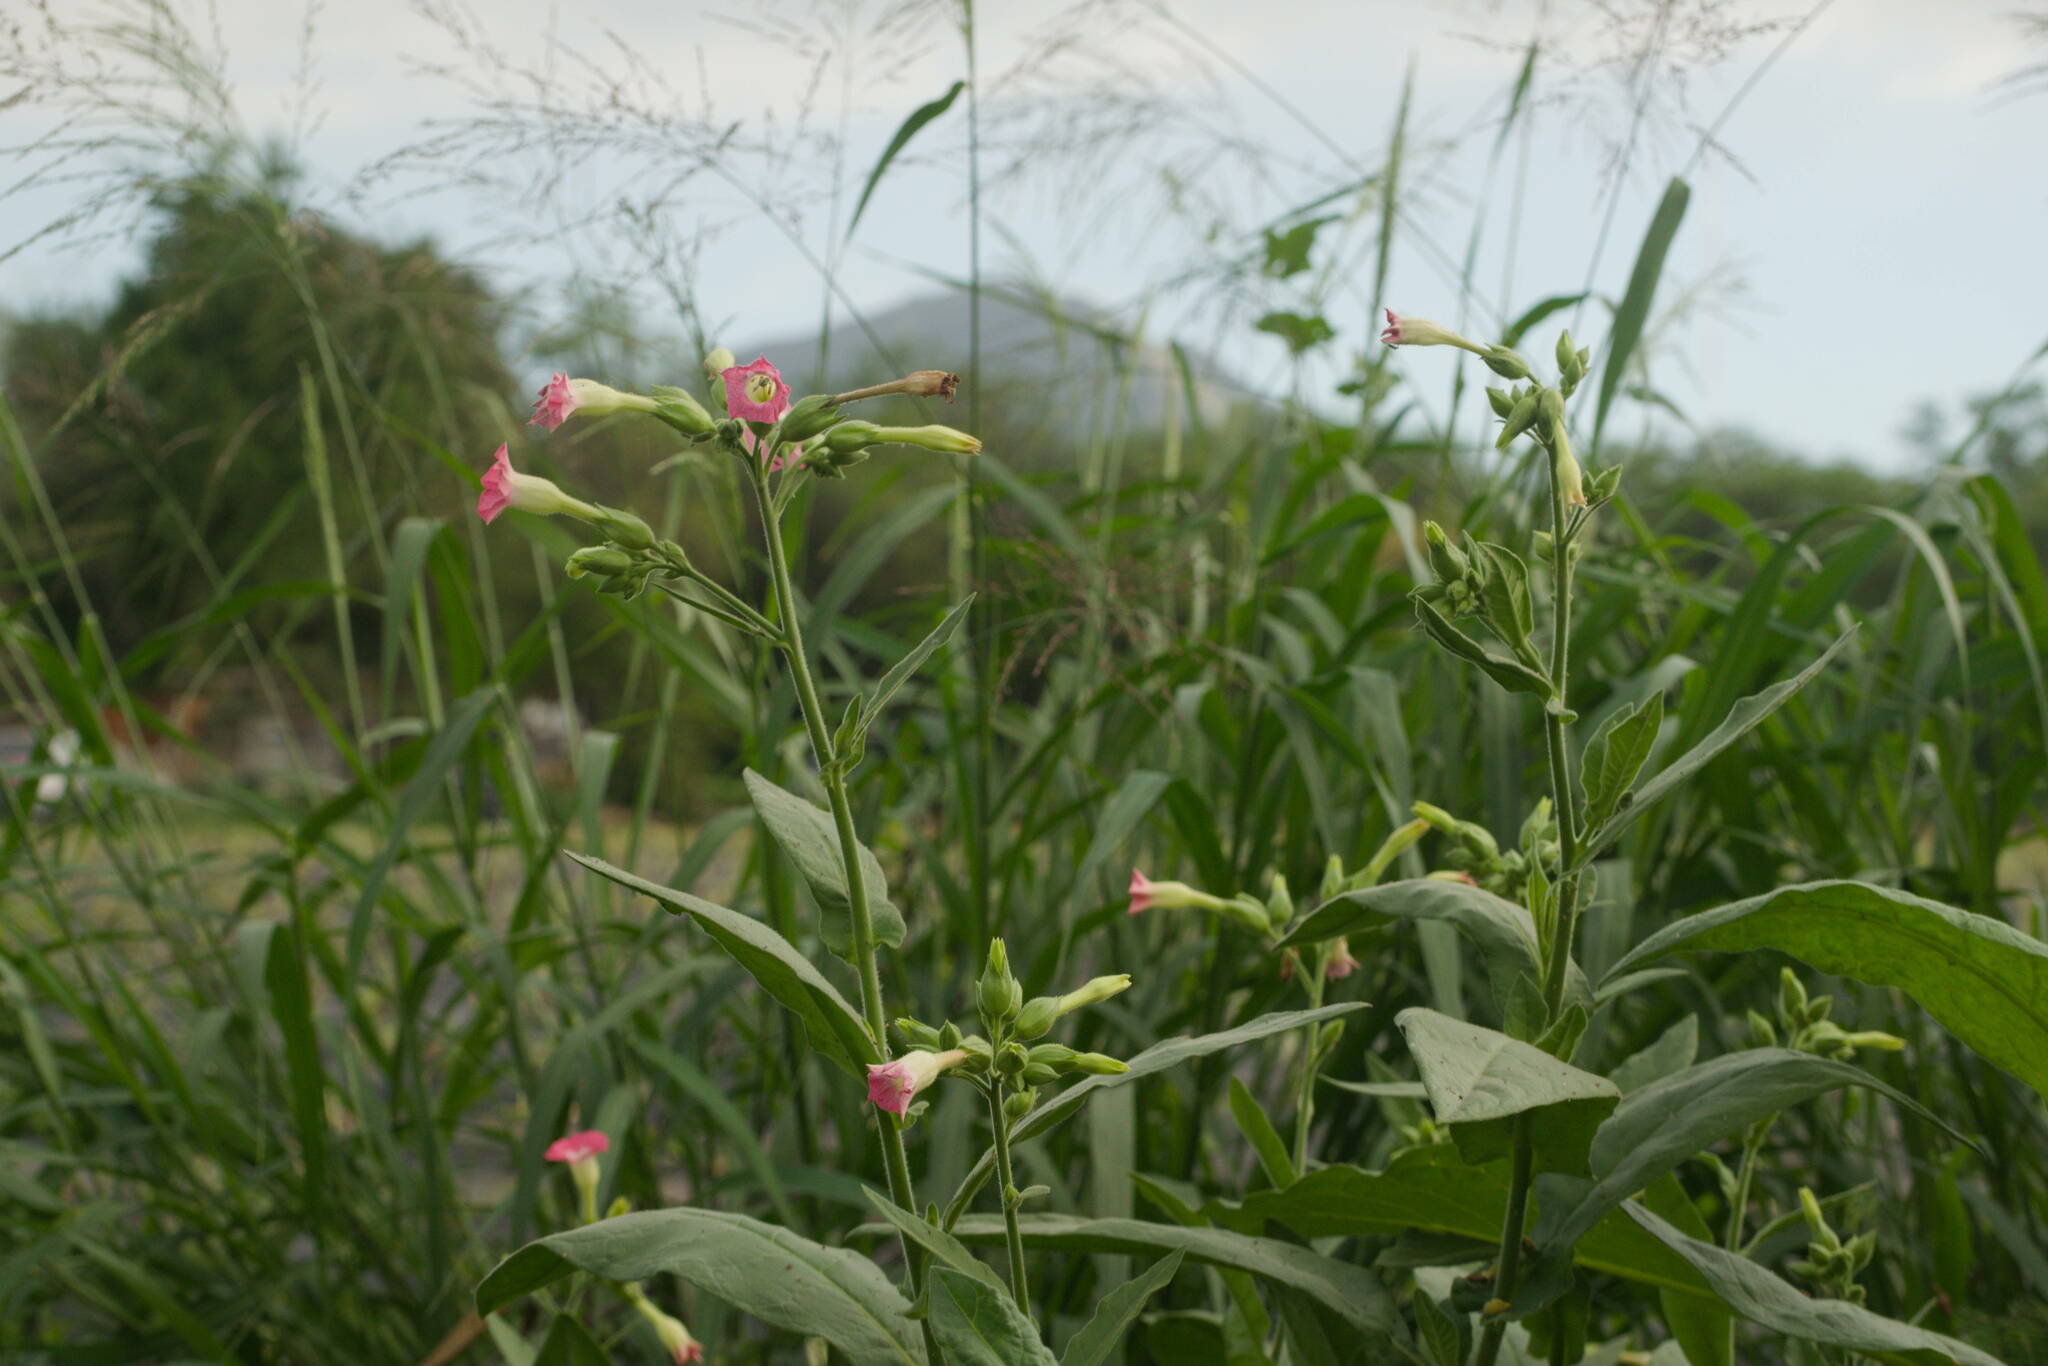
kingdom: Plantae
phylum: Tracheophyta
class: Magnoliopsida
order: Solanales
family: Solanaceae
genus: Nicotiana
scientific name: Nicotiana tabacum
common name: Tobacco
